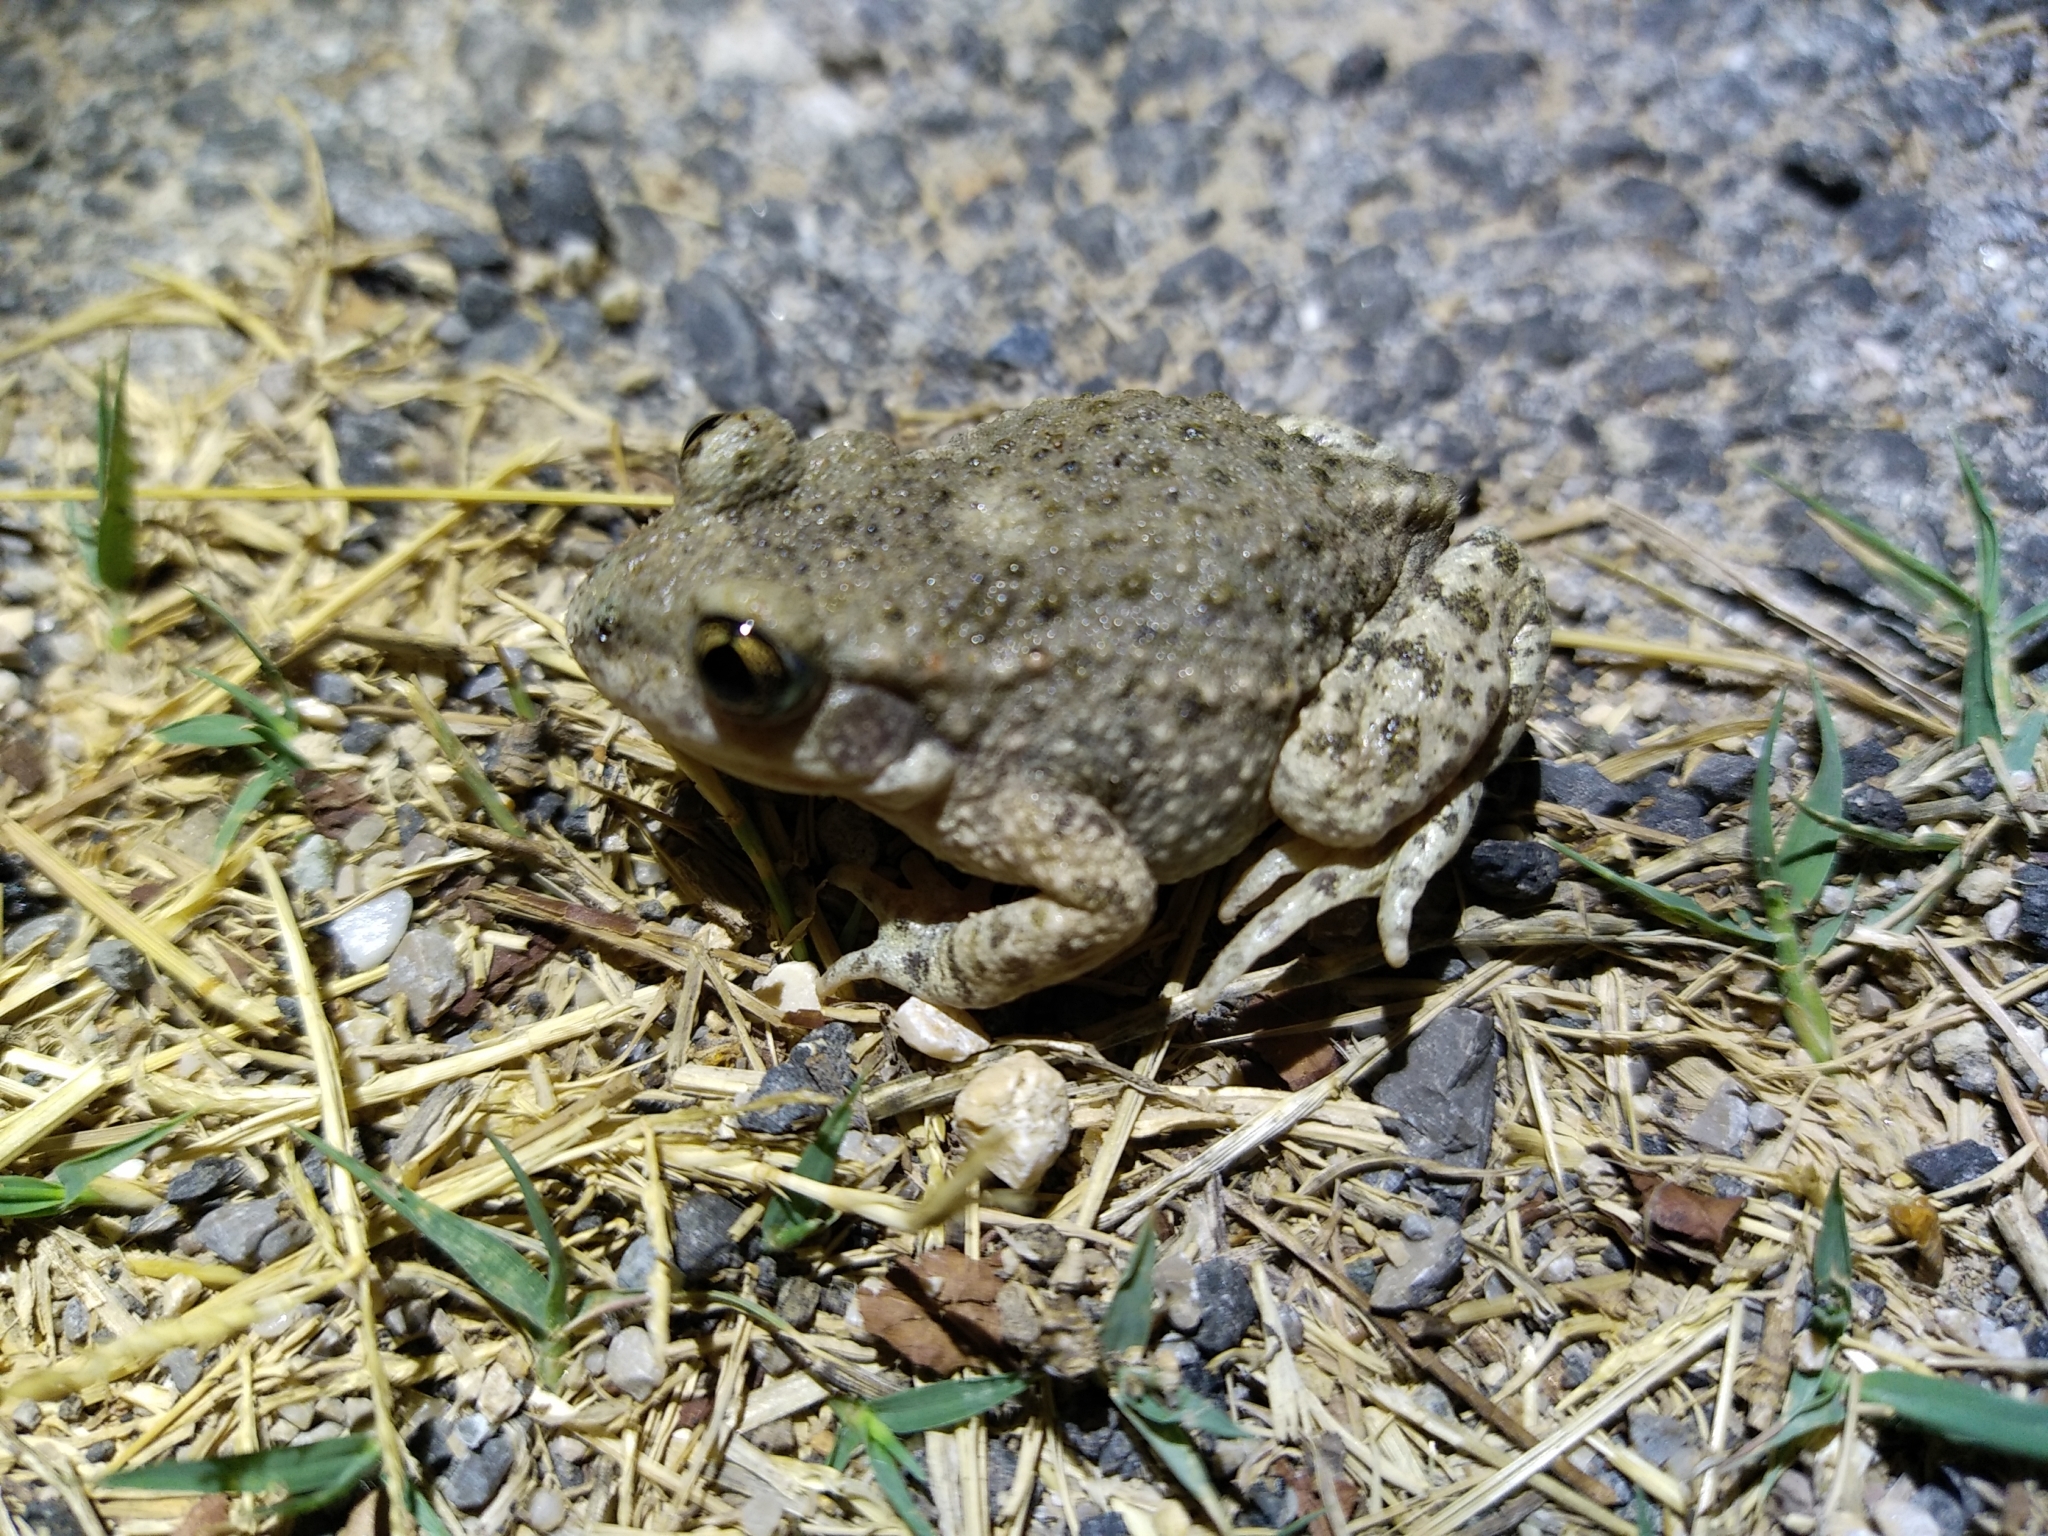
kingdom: Animalia
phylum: Chordata
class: Amphibia
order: Anura
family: Alytidae
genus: Alytes
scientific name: Alytes obstetricans
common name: Midwife toad
